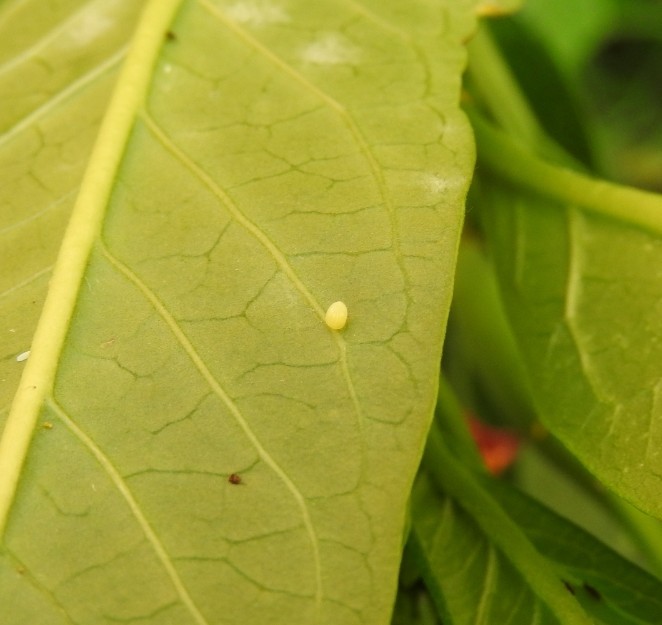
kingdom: Animalia
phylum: Arthropoda
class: Insecta
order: Lepidoptera
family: Nymphalidae
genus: Danaus
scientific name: Danaus plexippus
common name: Monarch
